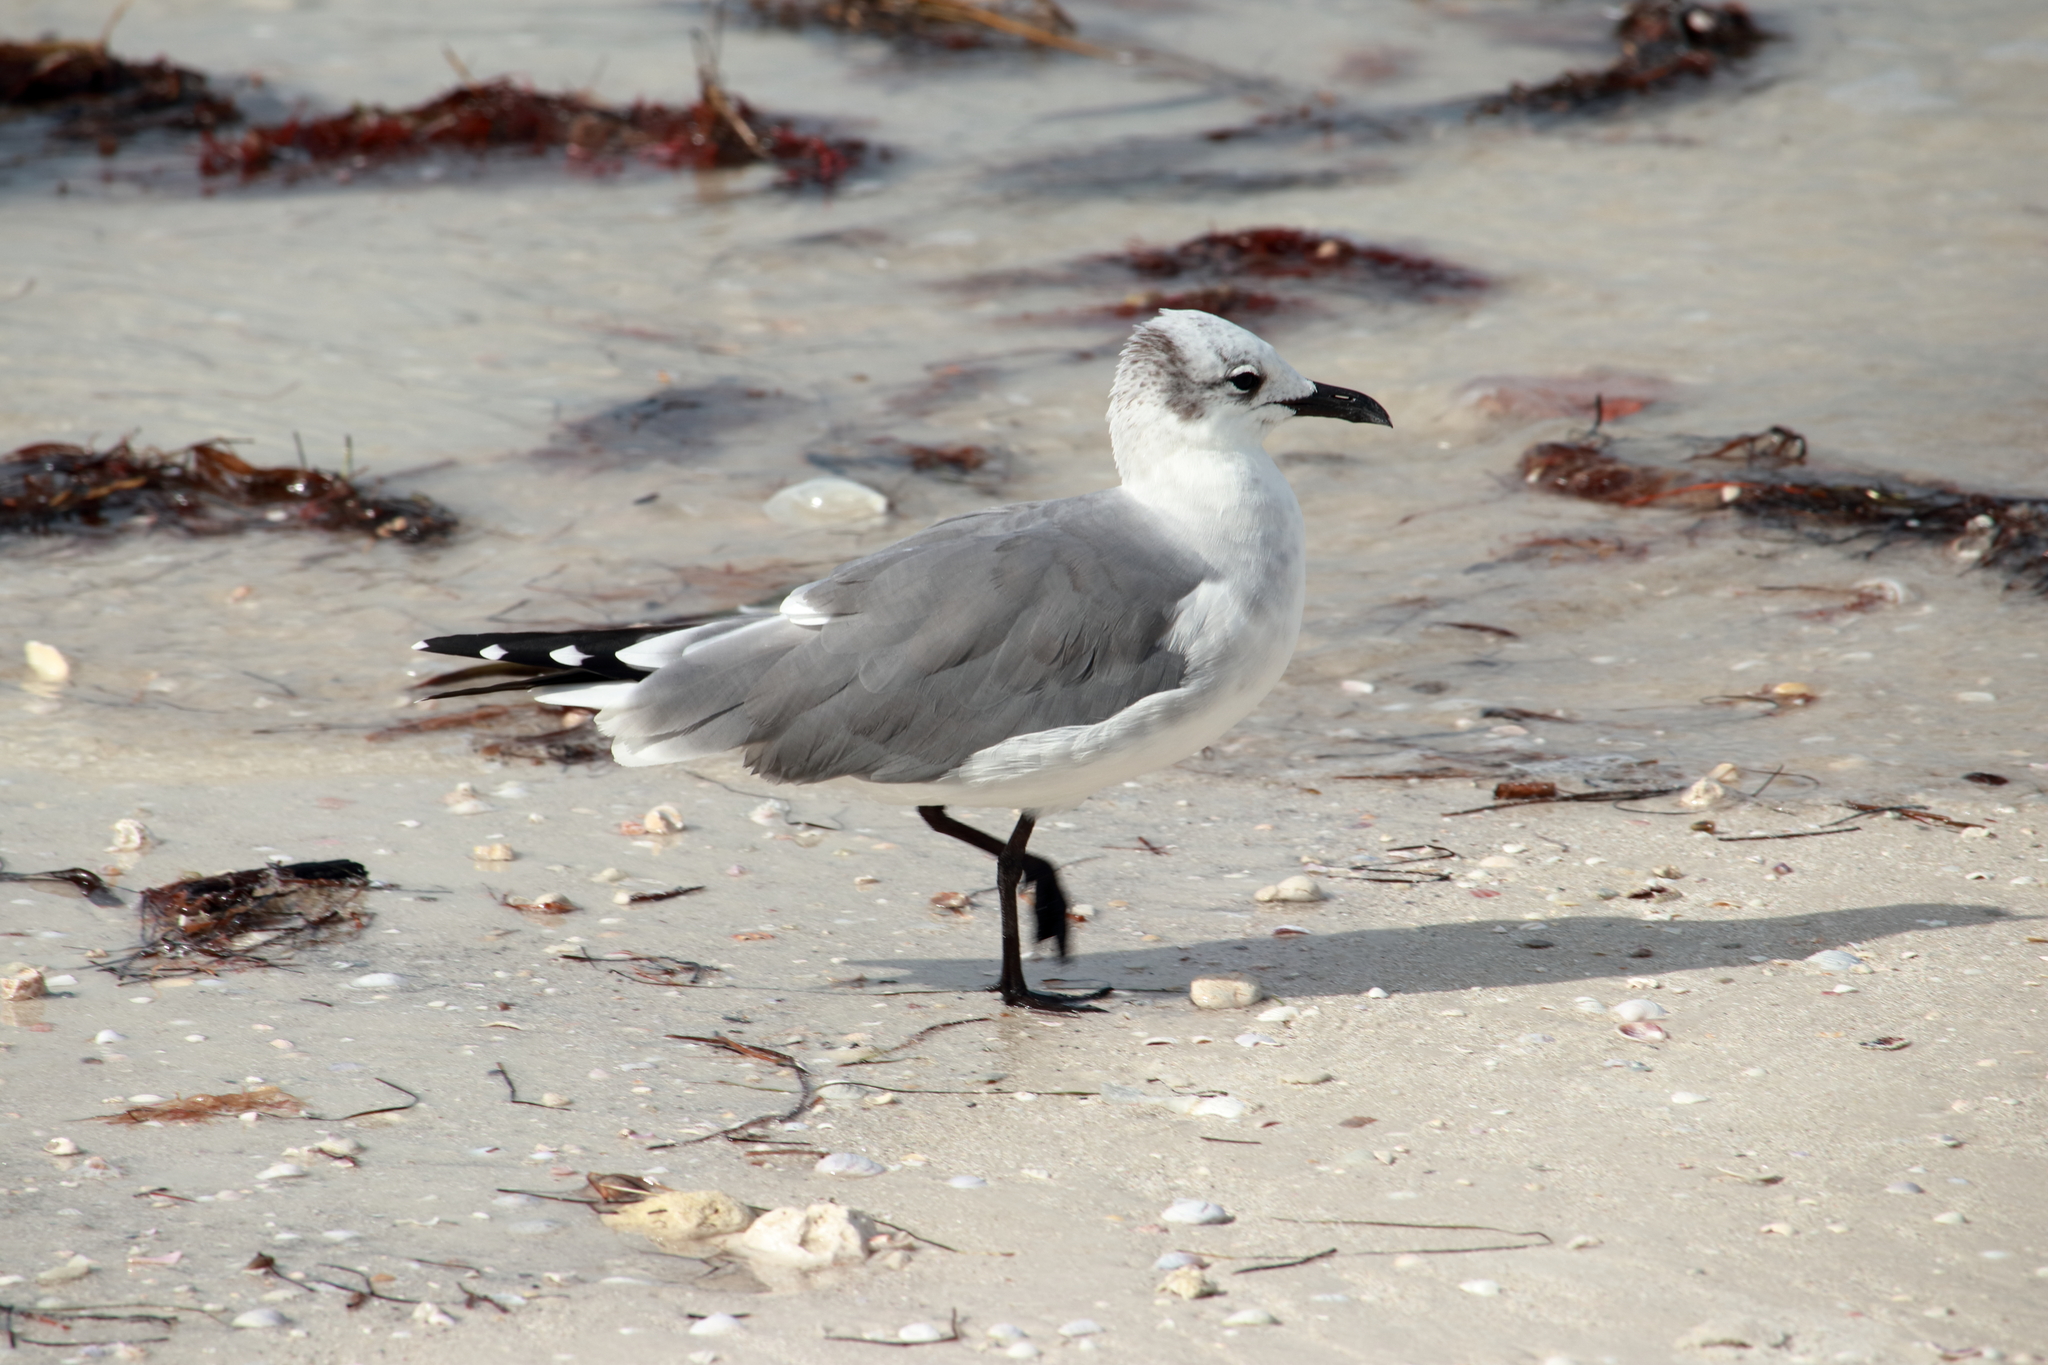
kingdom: Animalia
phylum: Chordata
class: Aves
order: Charadriiformes
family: Laridae
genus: Leucophaeus
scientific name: Leucophaeus atricilla
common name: Laughing gull
